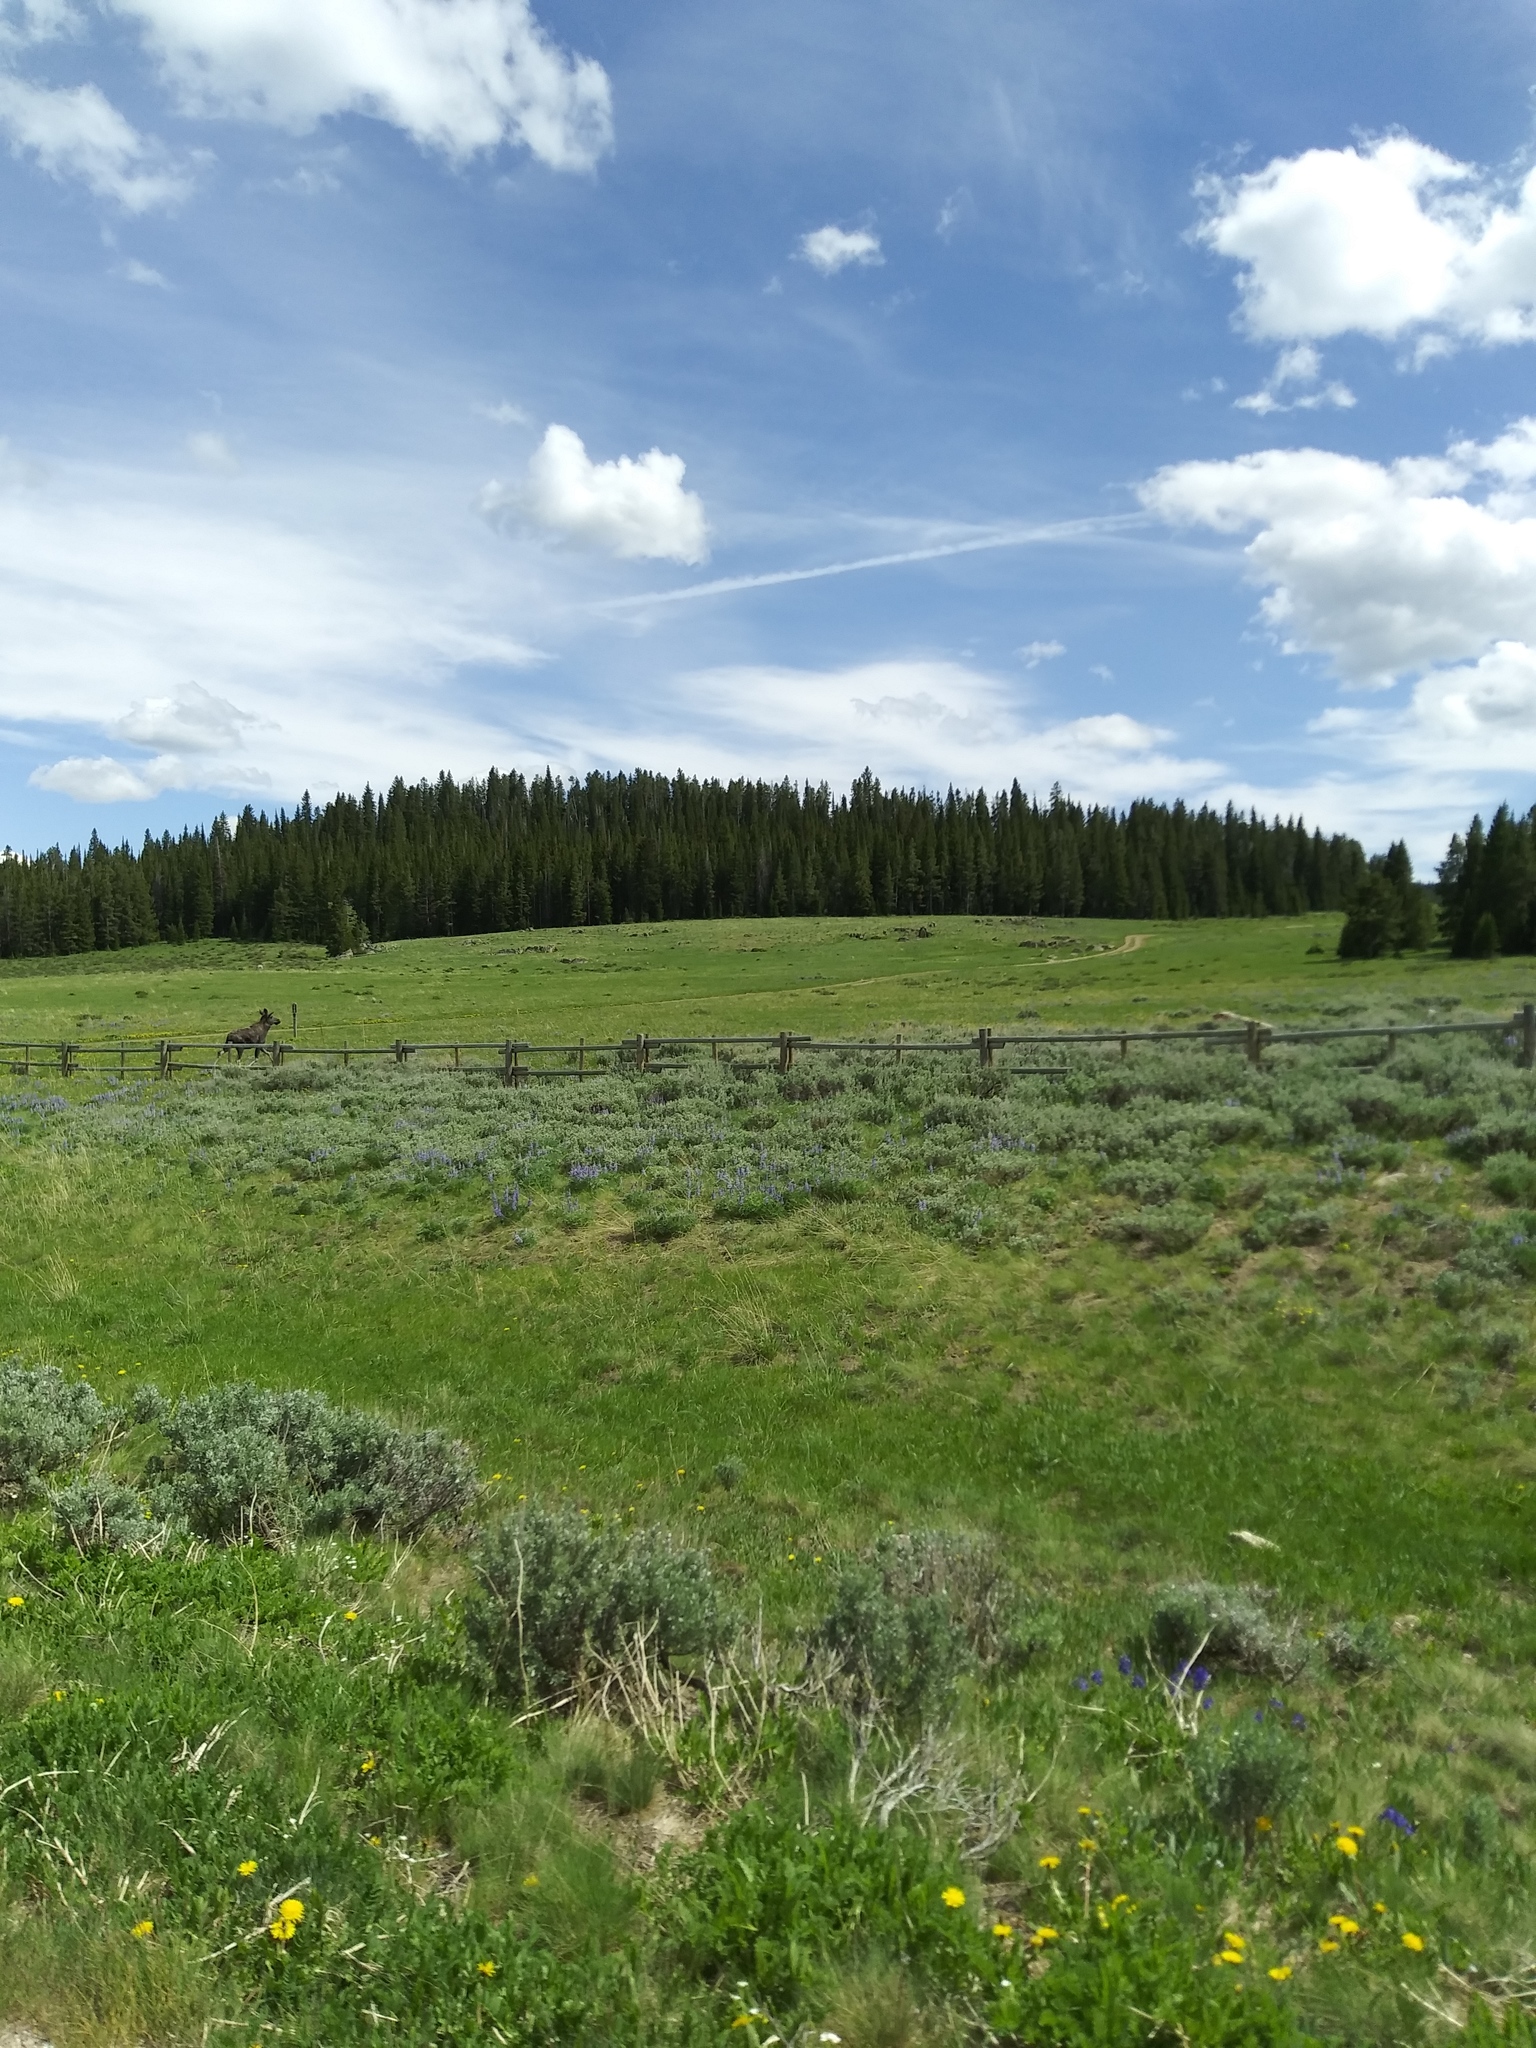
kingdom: Animalia
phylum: Chordata
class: Mammalia
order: Artiodactyla
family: Cervidae
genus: Alces
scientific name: Alces alces
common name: Moose
